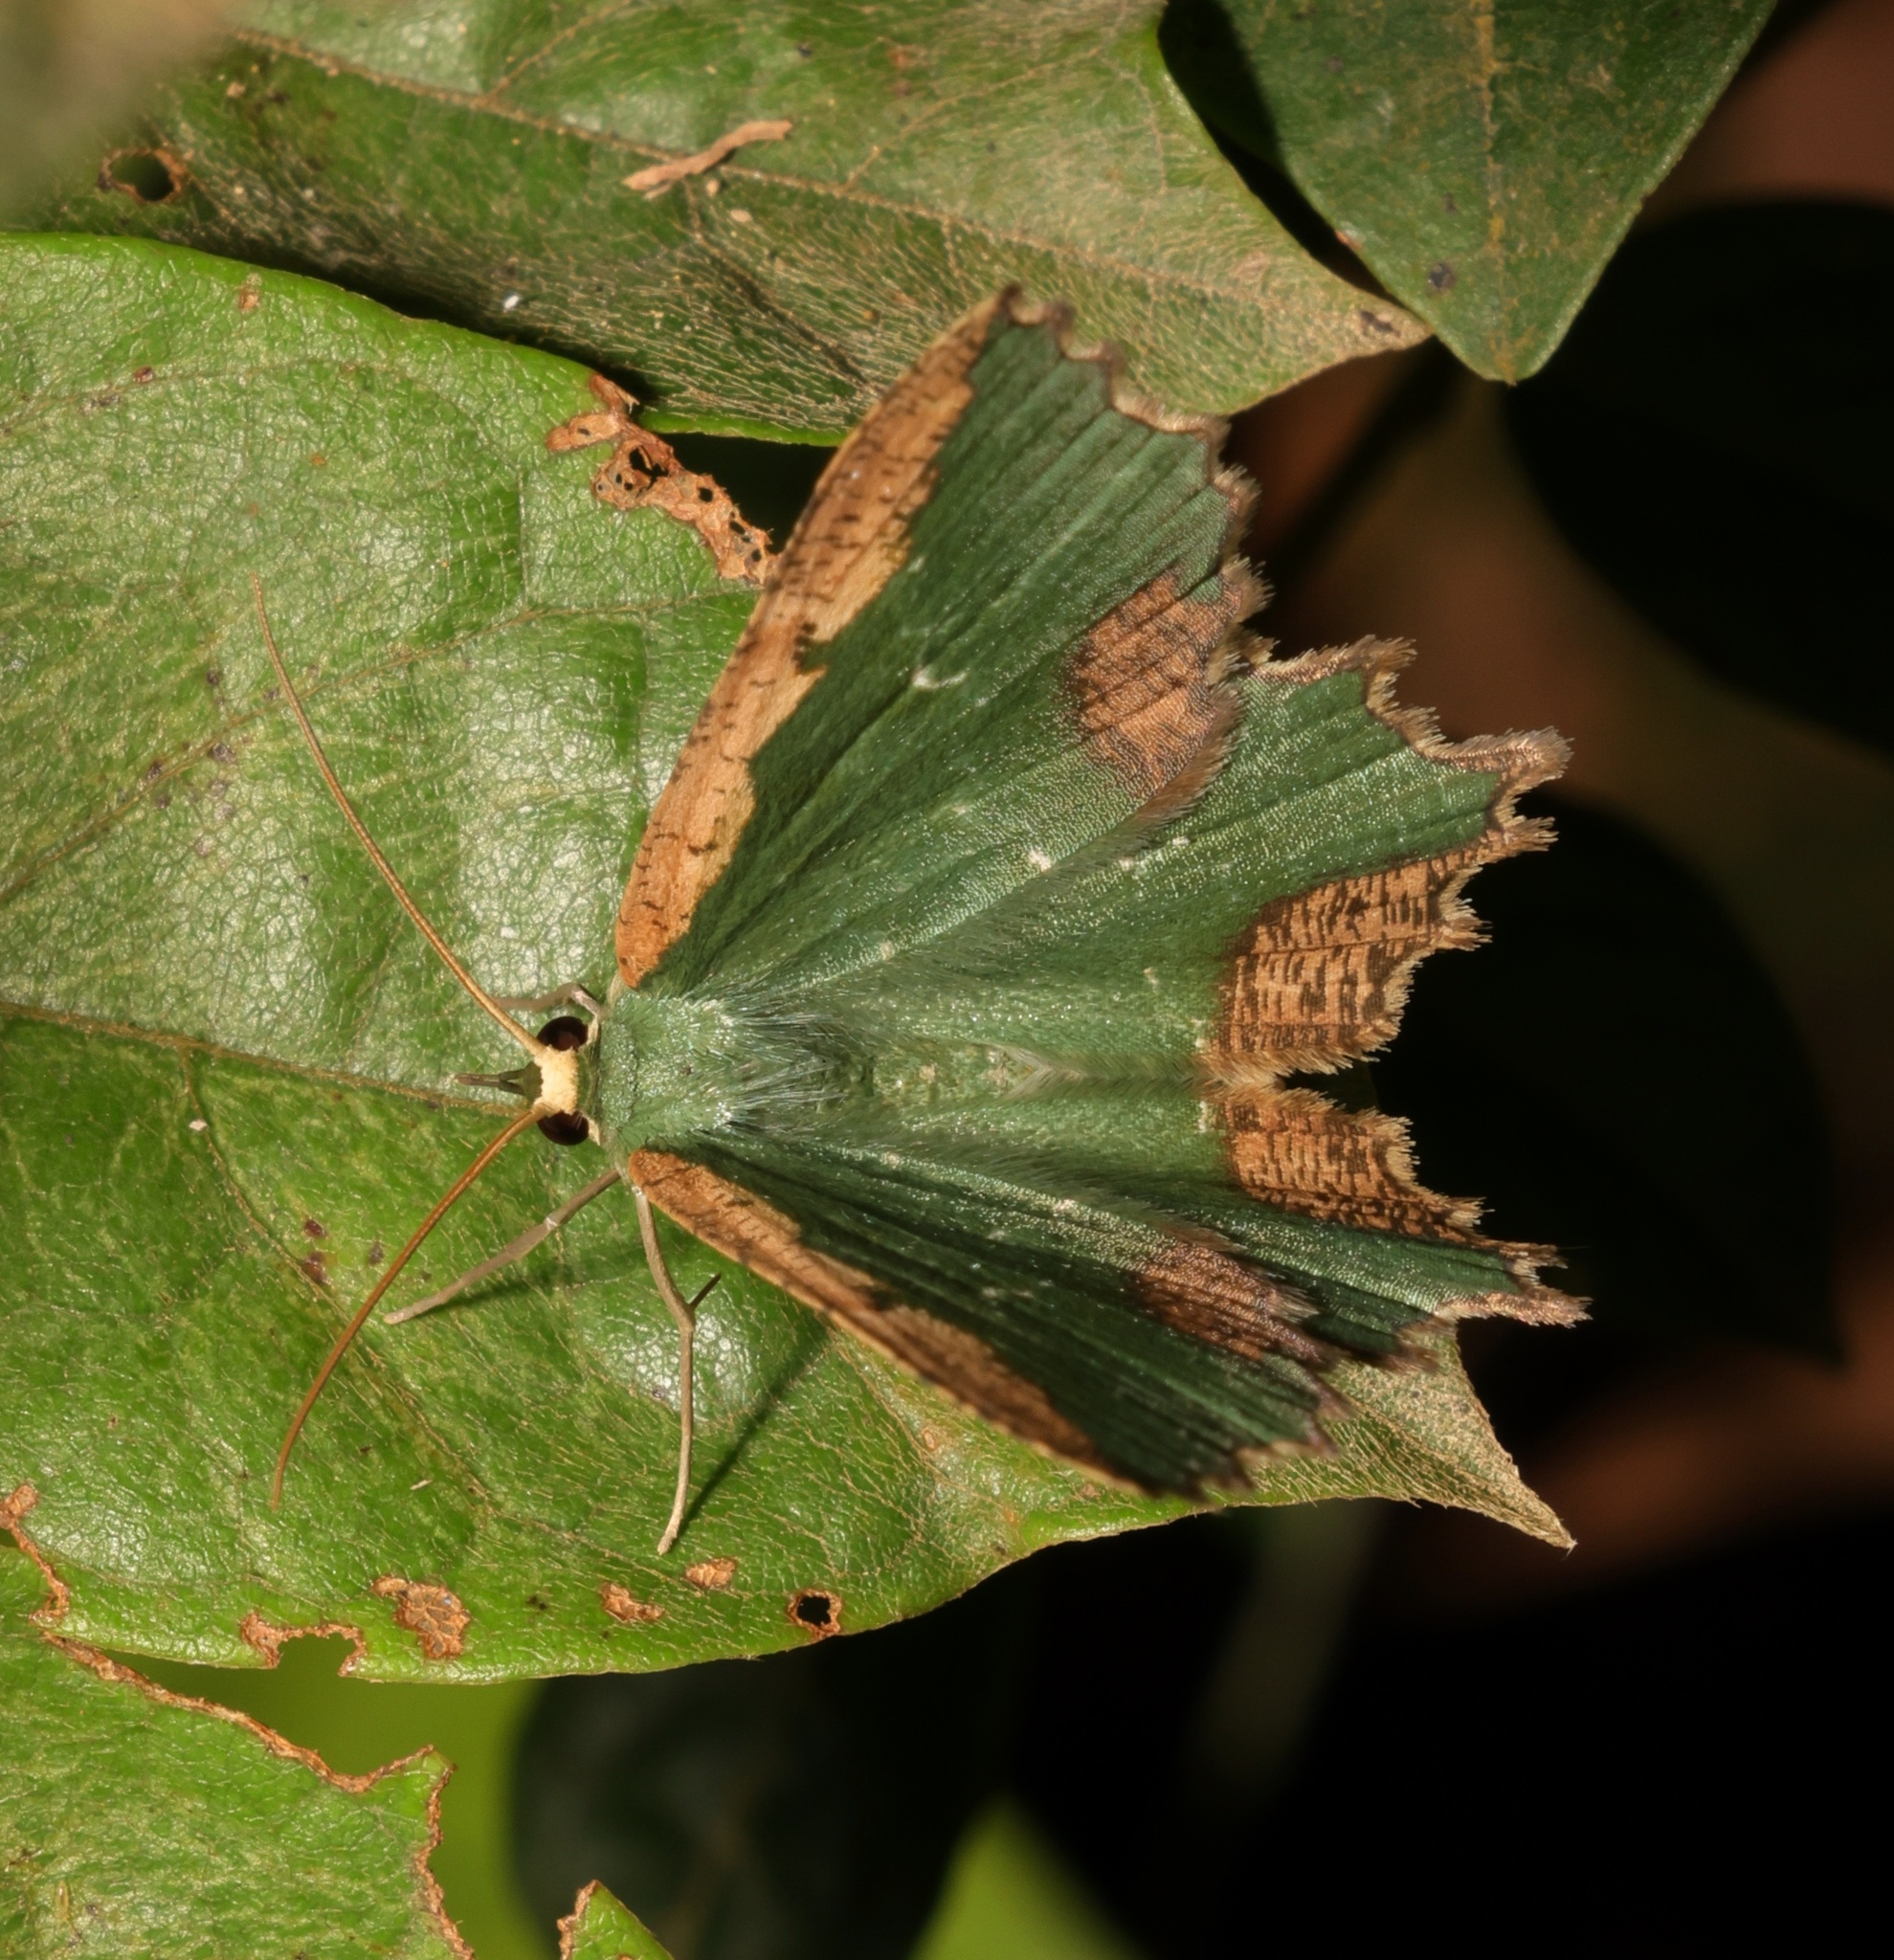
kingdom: Animalia
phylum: Arthropoda
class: Insecta
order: Lepidoptera
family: Geometridae
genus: Maxates
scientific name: Maxates coelataria
